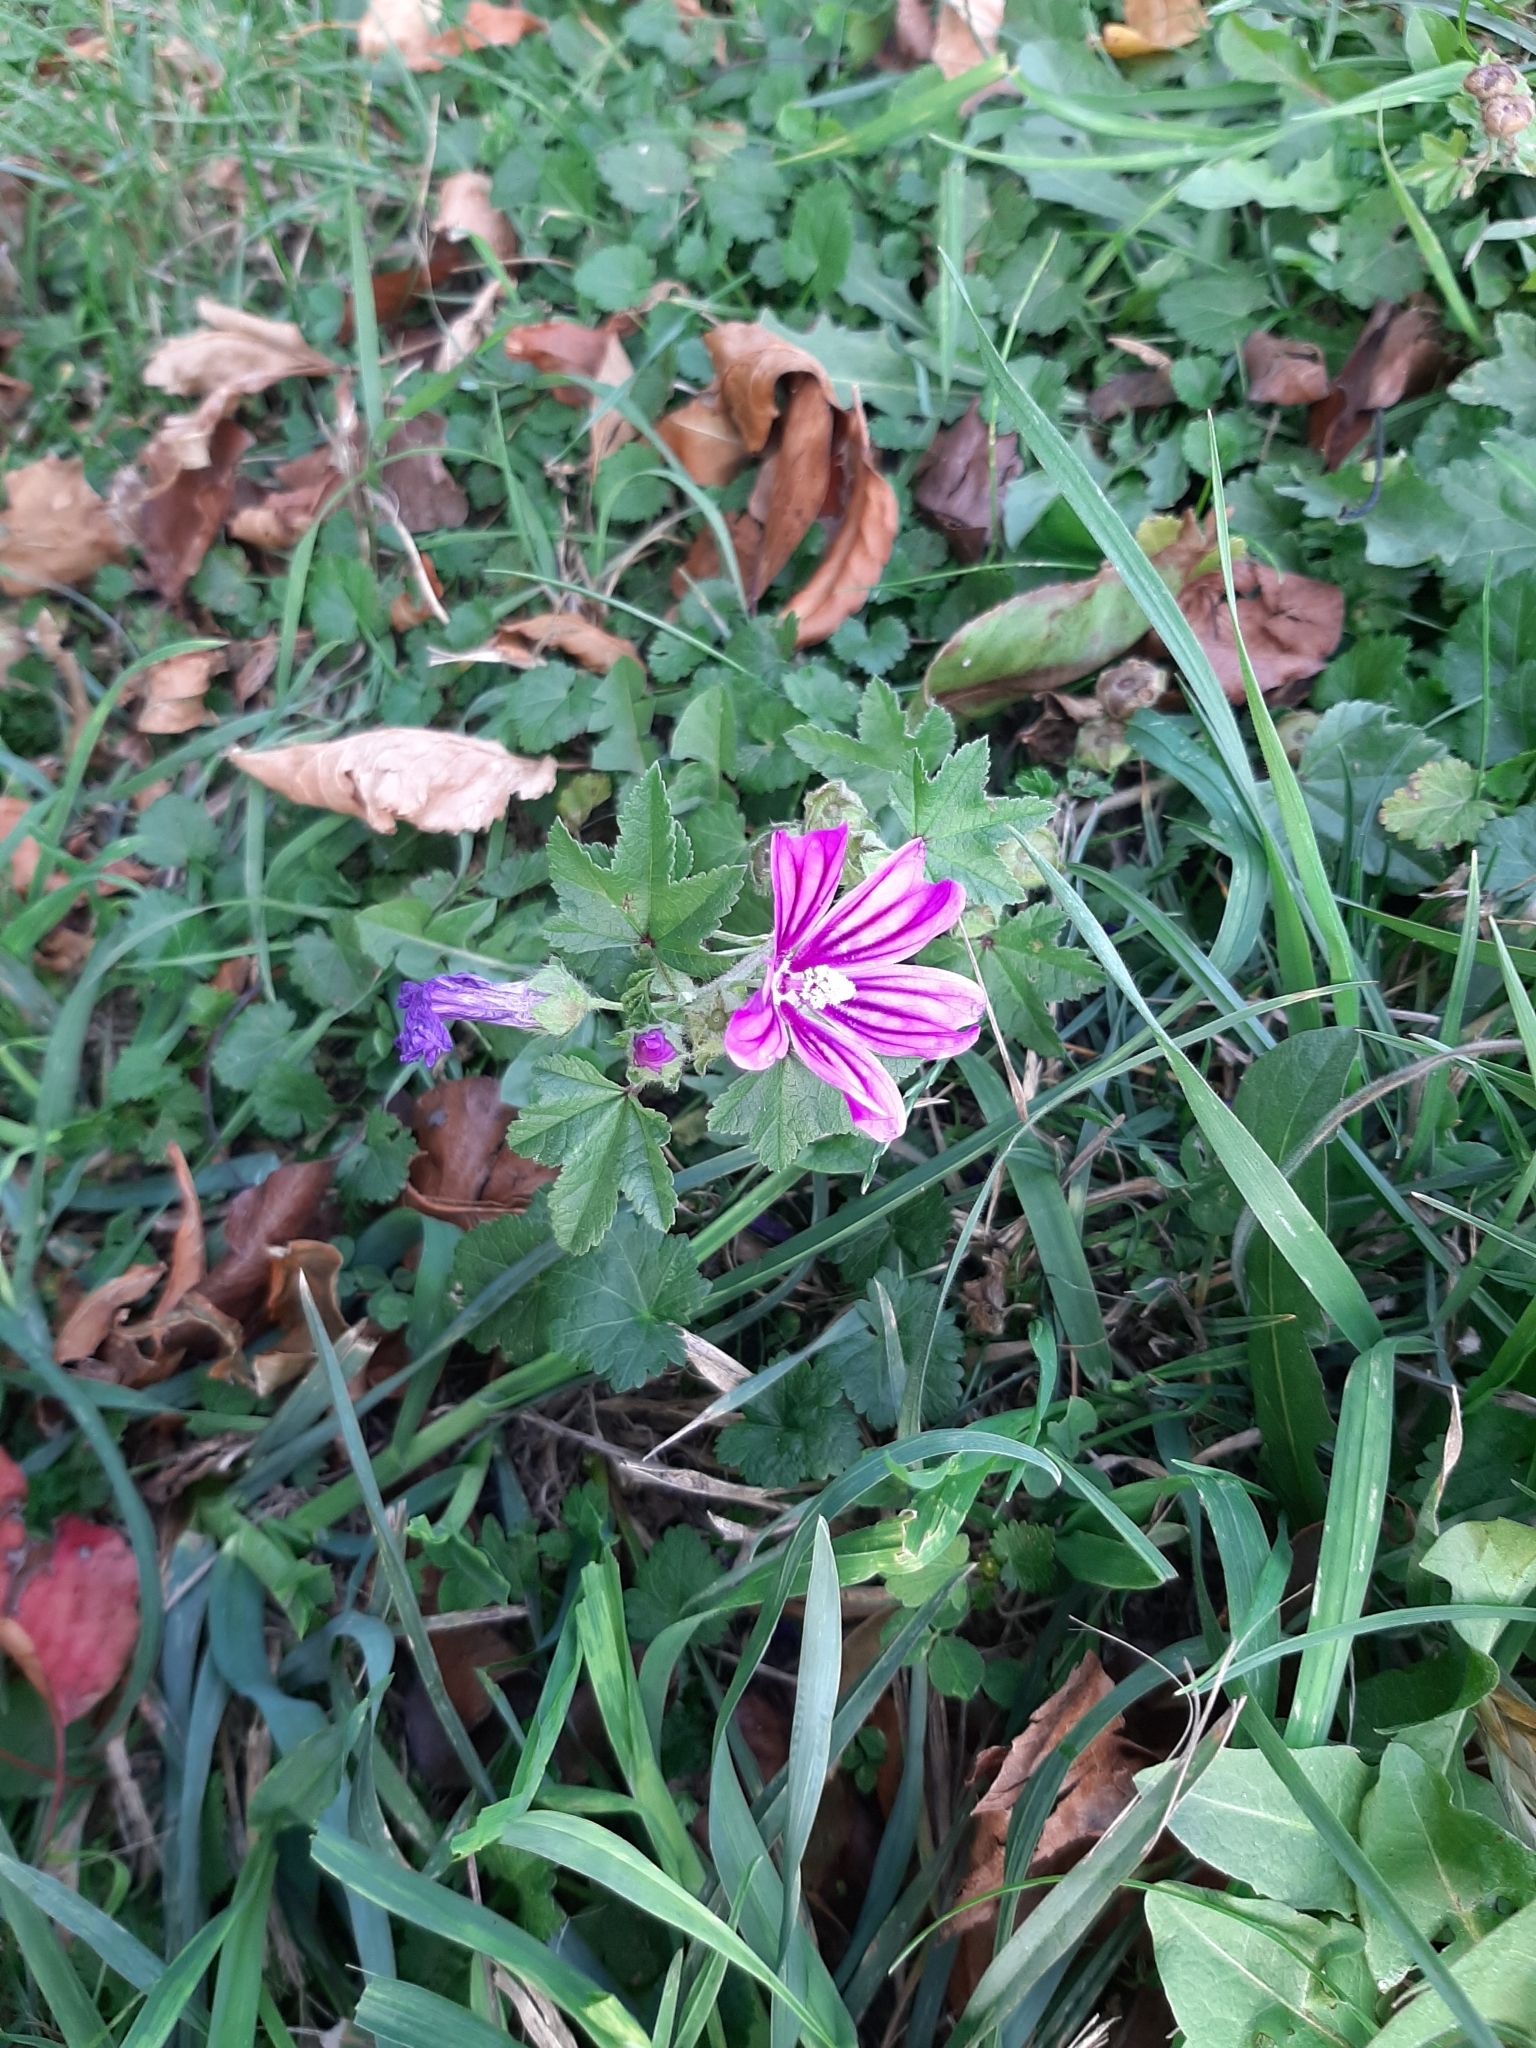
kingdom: Plantae
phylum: Tracheophyta
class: Magnoliopsida
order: Malvales
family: Malvaceae
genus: Malva
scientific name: Malva sylvestris
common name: Common mallow
